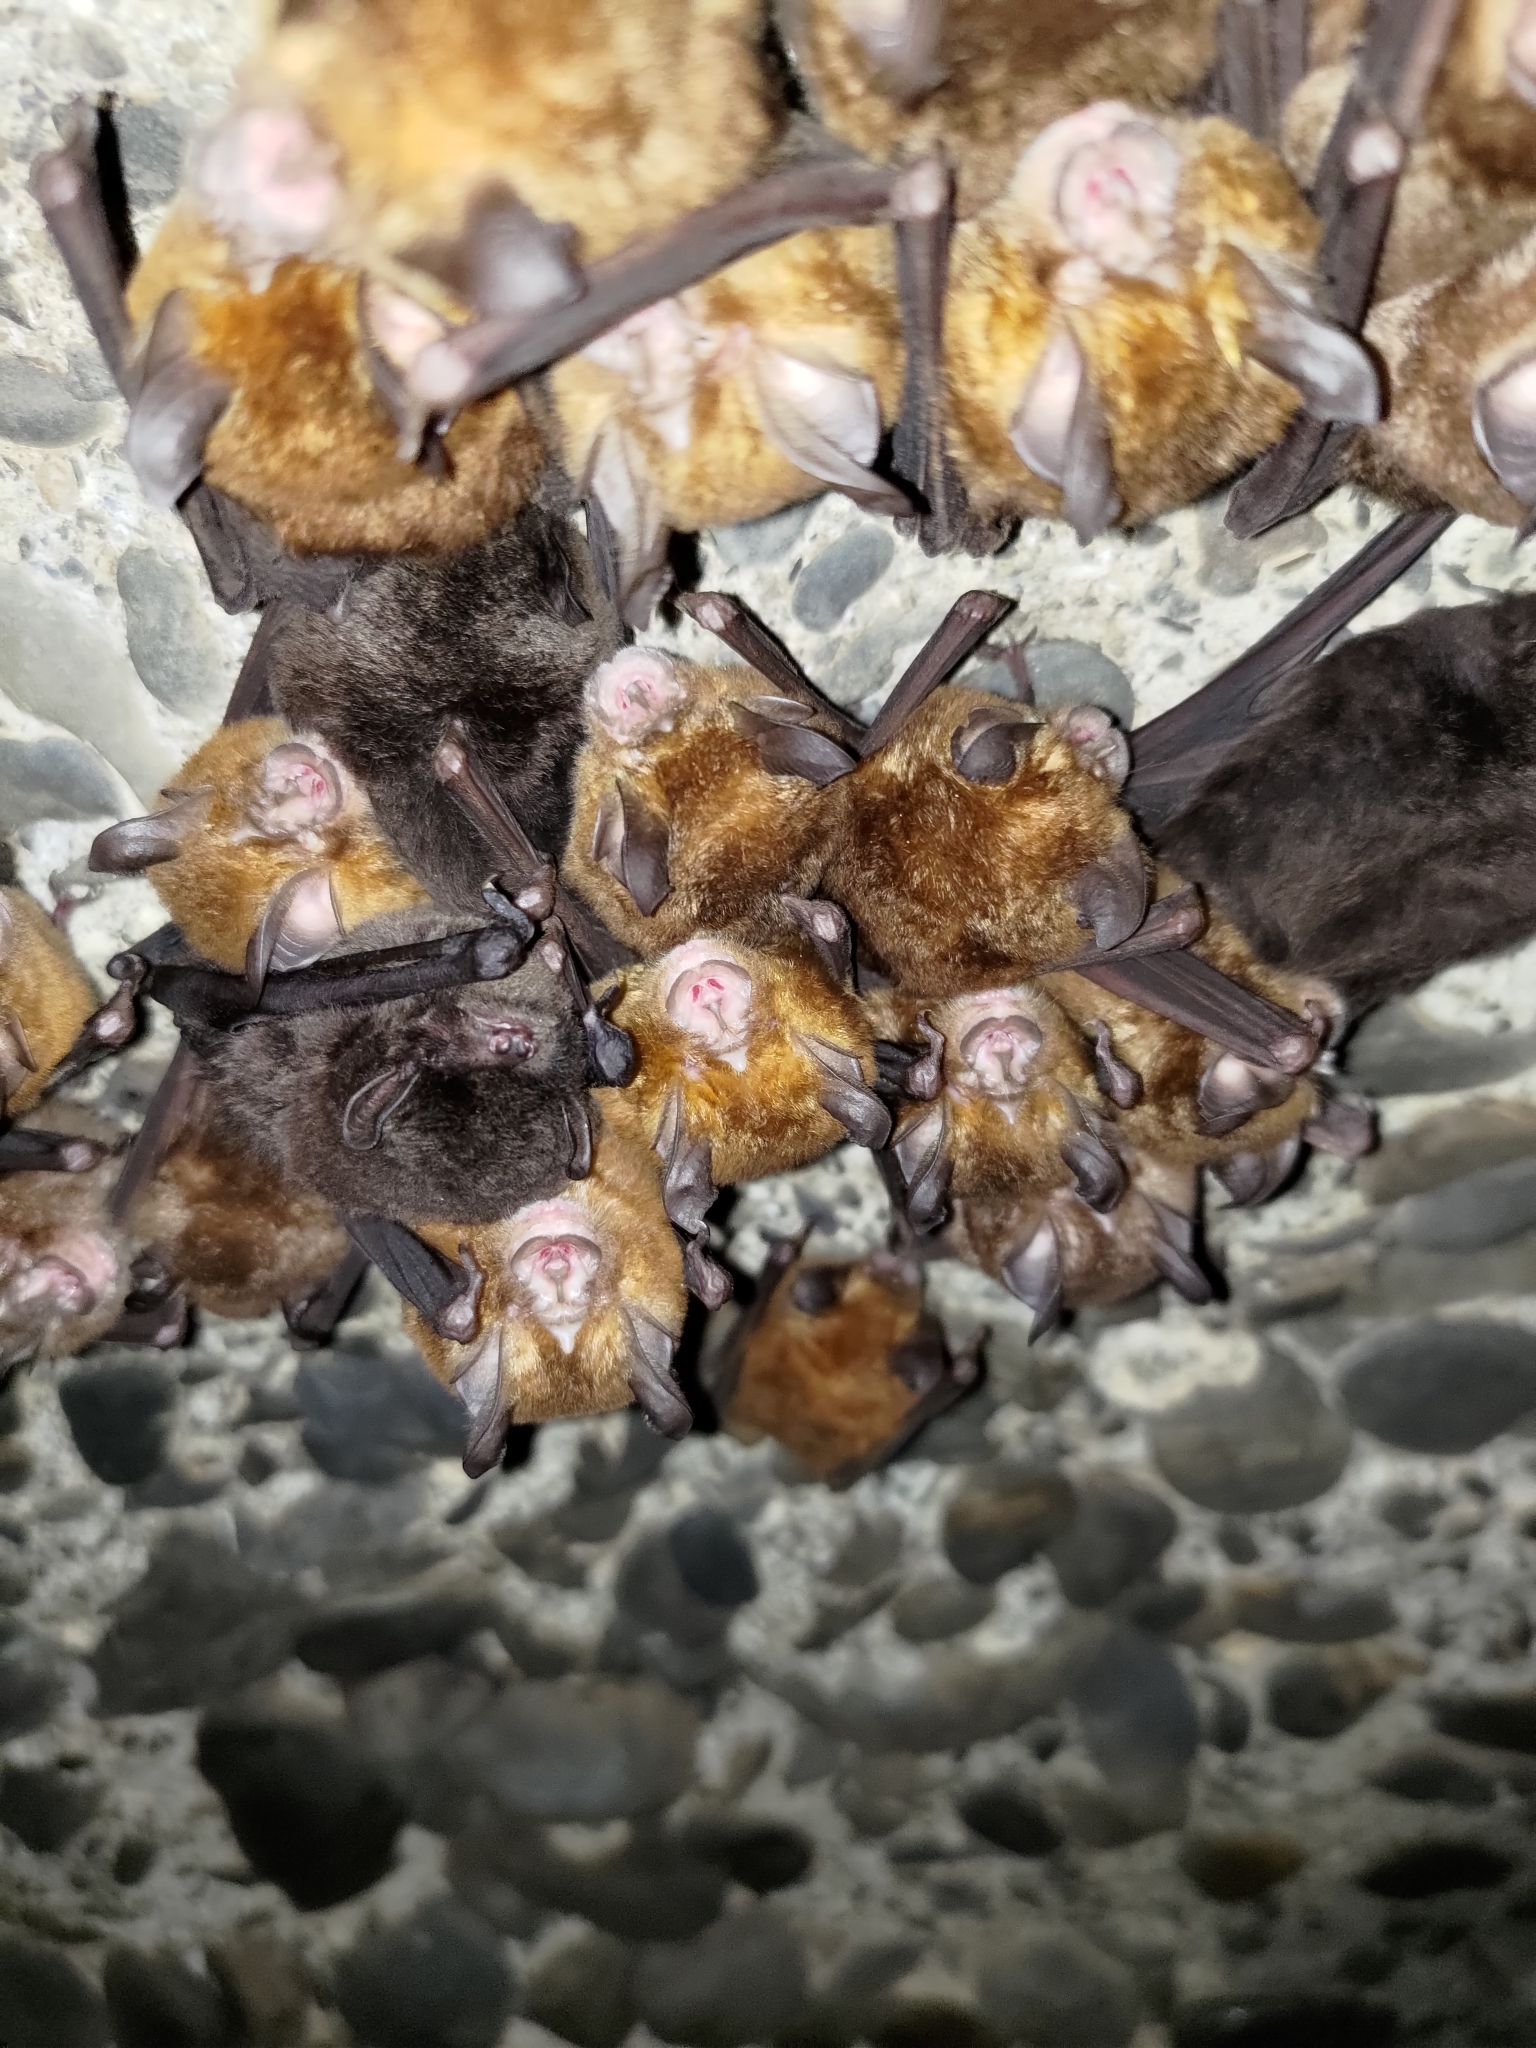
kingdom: Animalia
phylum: Chordata
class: Mammalia
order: Chiroptera
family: Miniopteridae
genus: Miniopterus
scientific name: Miniopterus fuliginosus
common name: Asian long-fingered bat
